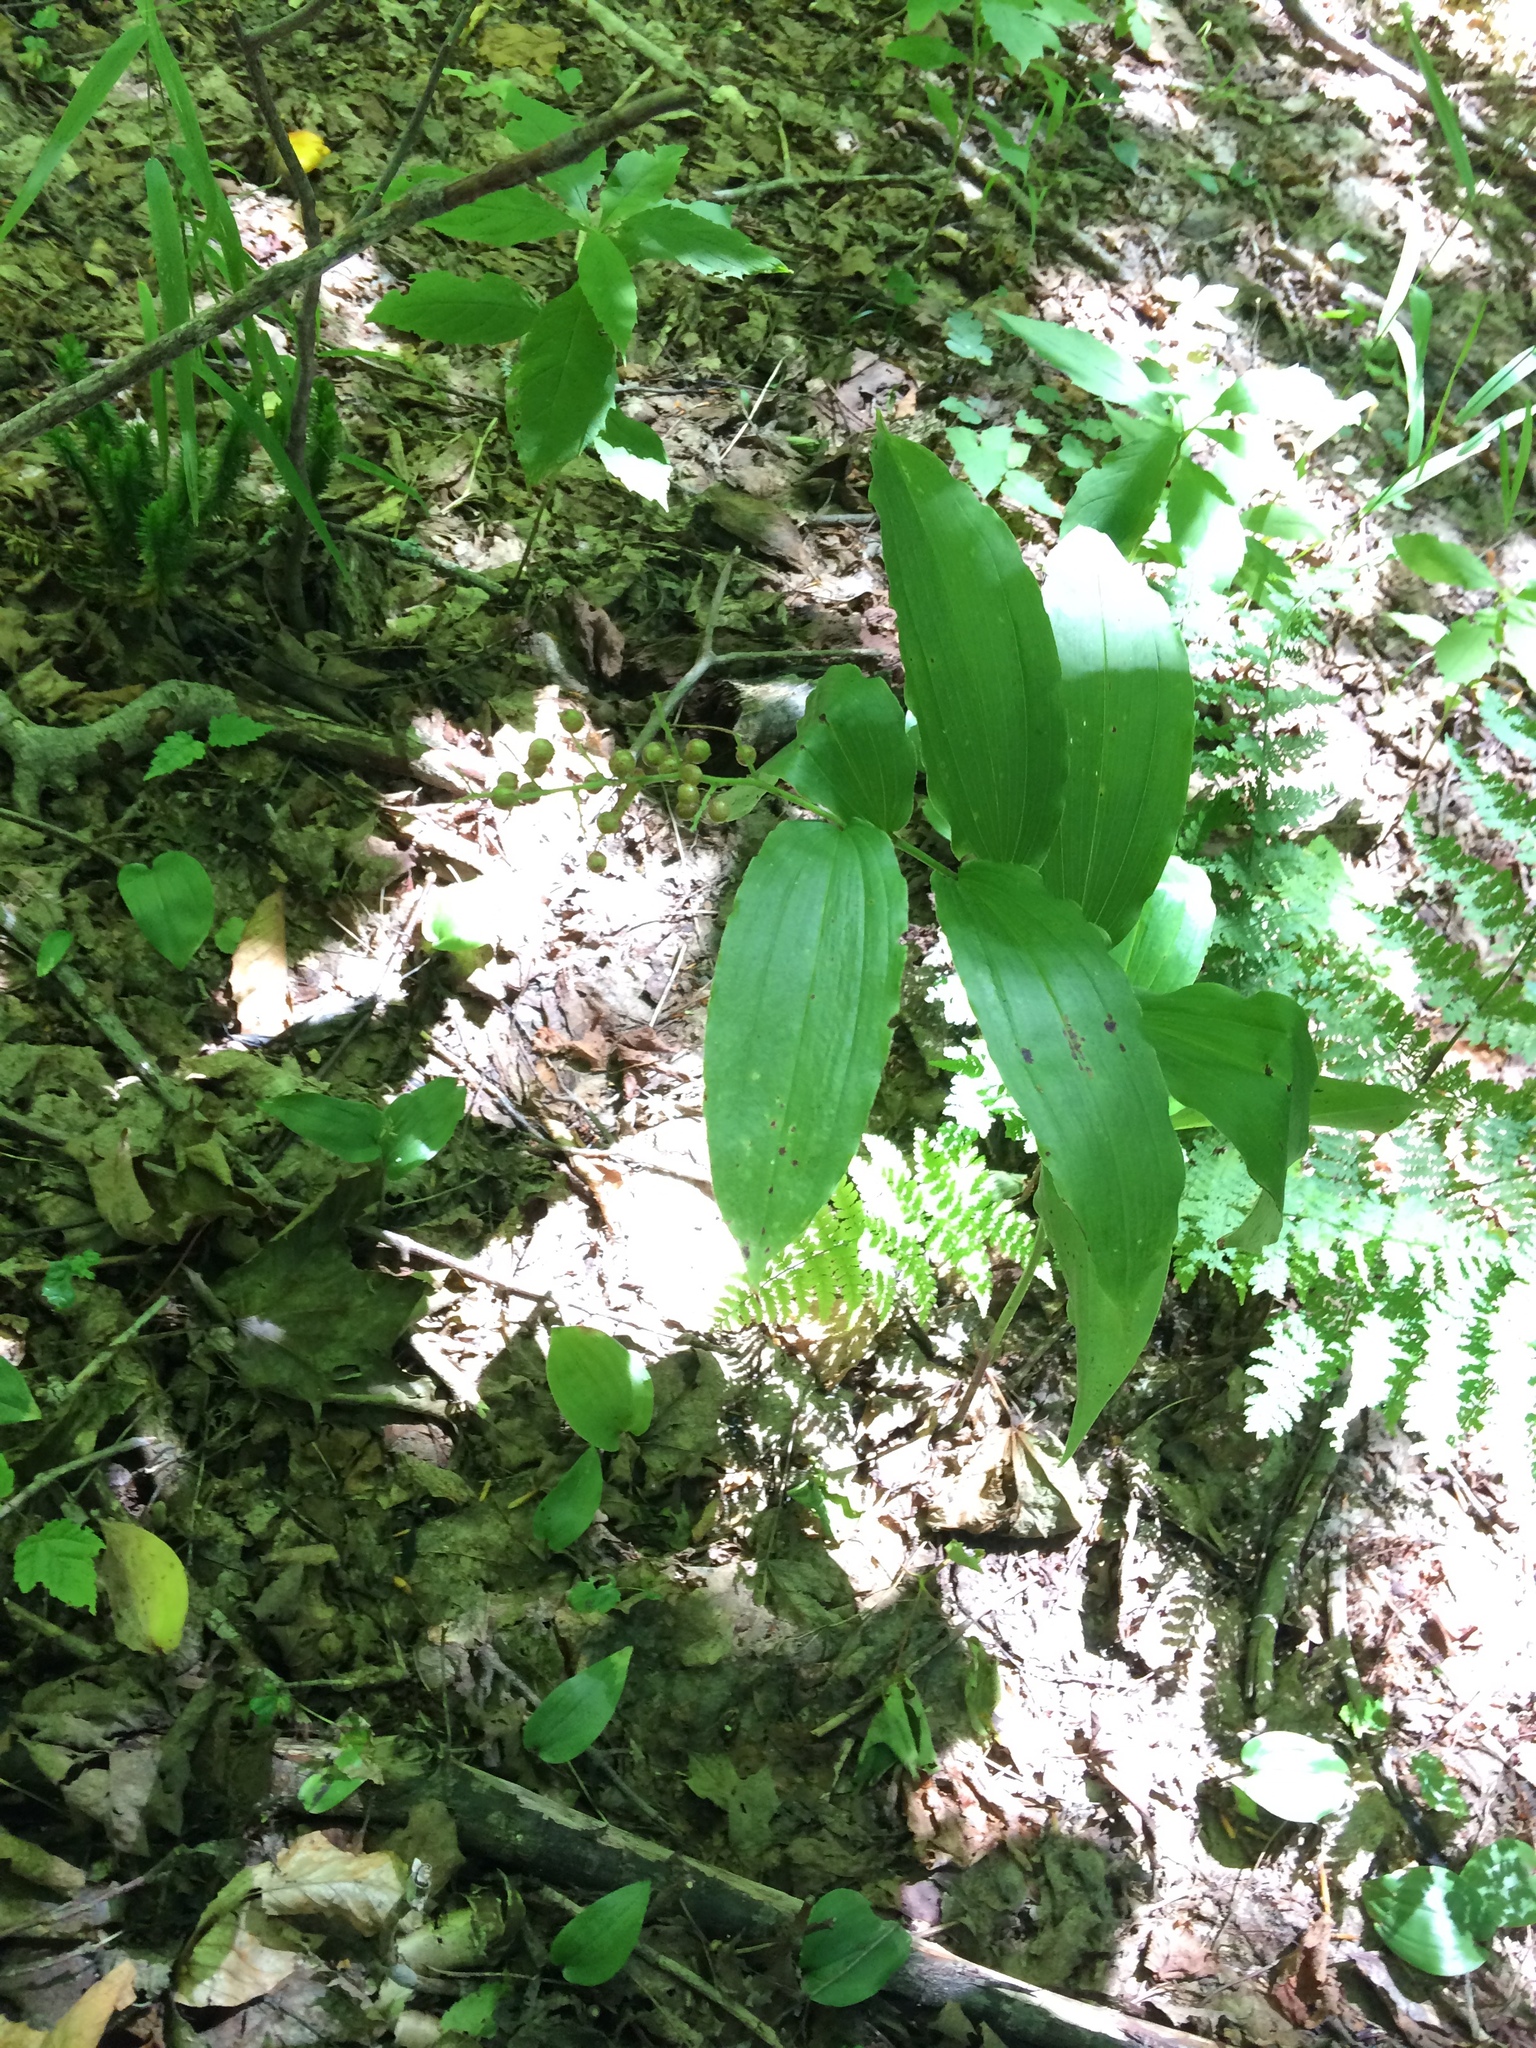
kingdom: Plantae
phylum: Tracheophyta
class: Liliopsida
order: Asparagales
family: Asparagaceae
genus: Maianthemum
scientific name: Maianthemum racemosum
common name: False spikenard
